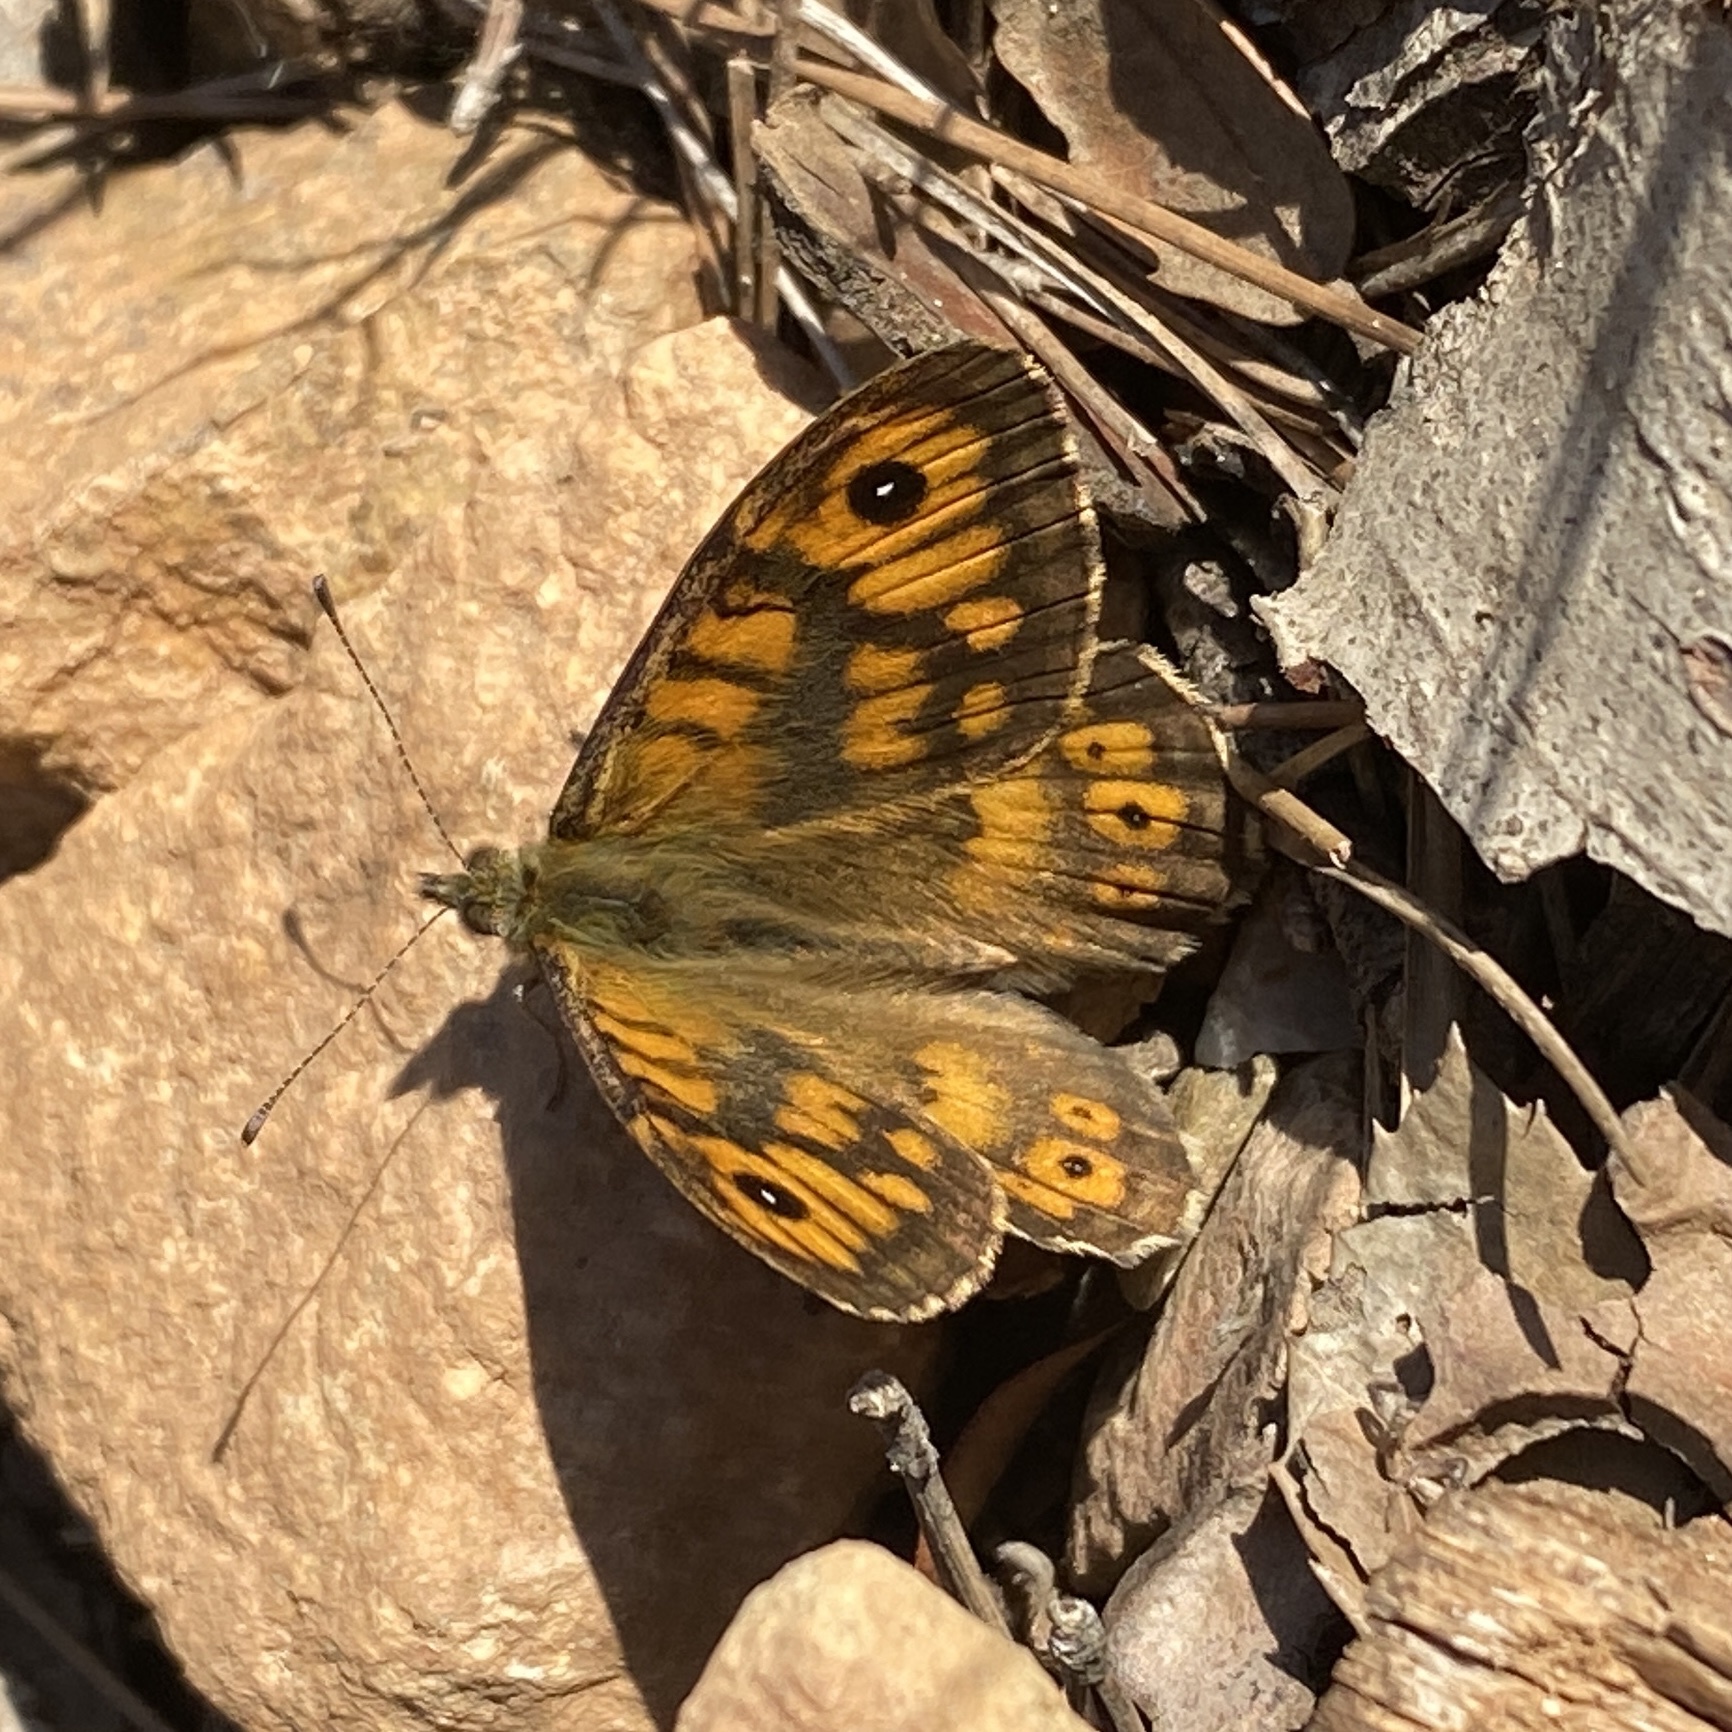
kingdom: Animalia
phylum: Arthropoda
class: Insecta
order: Lepidoptera
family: Nymphalidae
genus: Pararge
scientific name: Pararge Lasiommata megera
